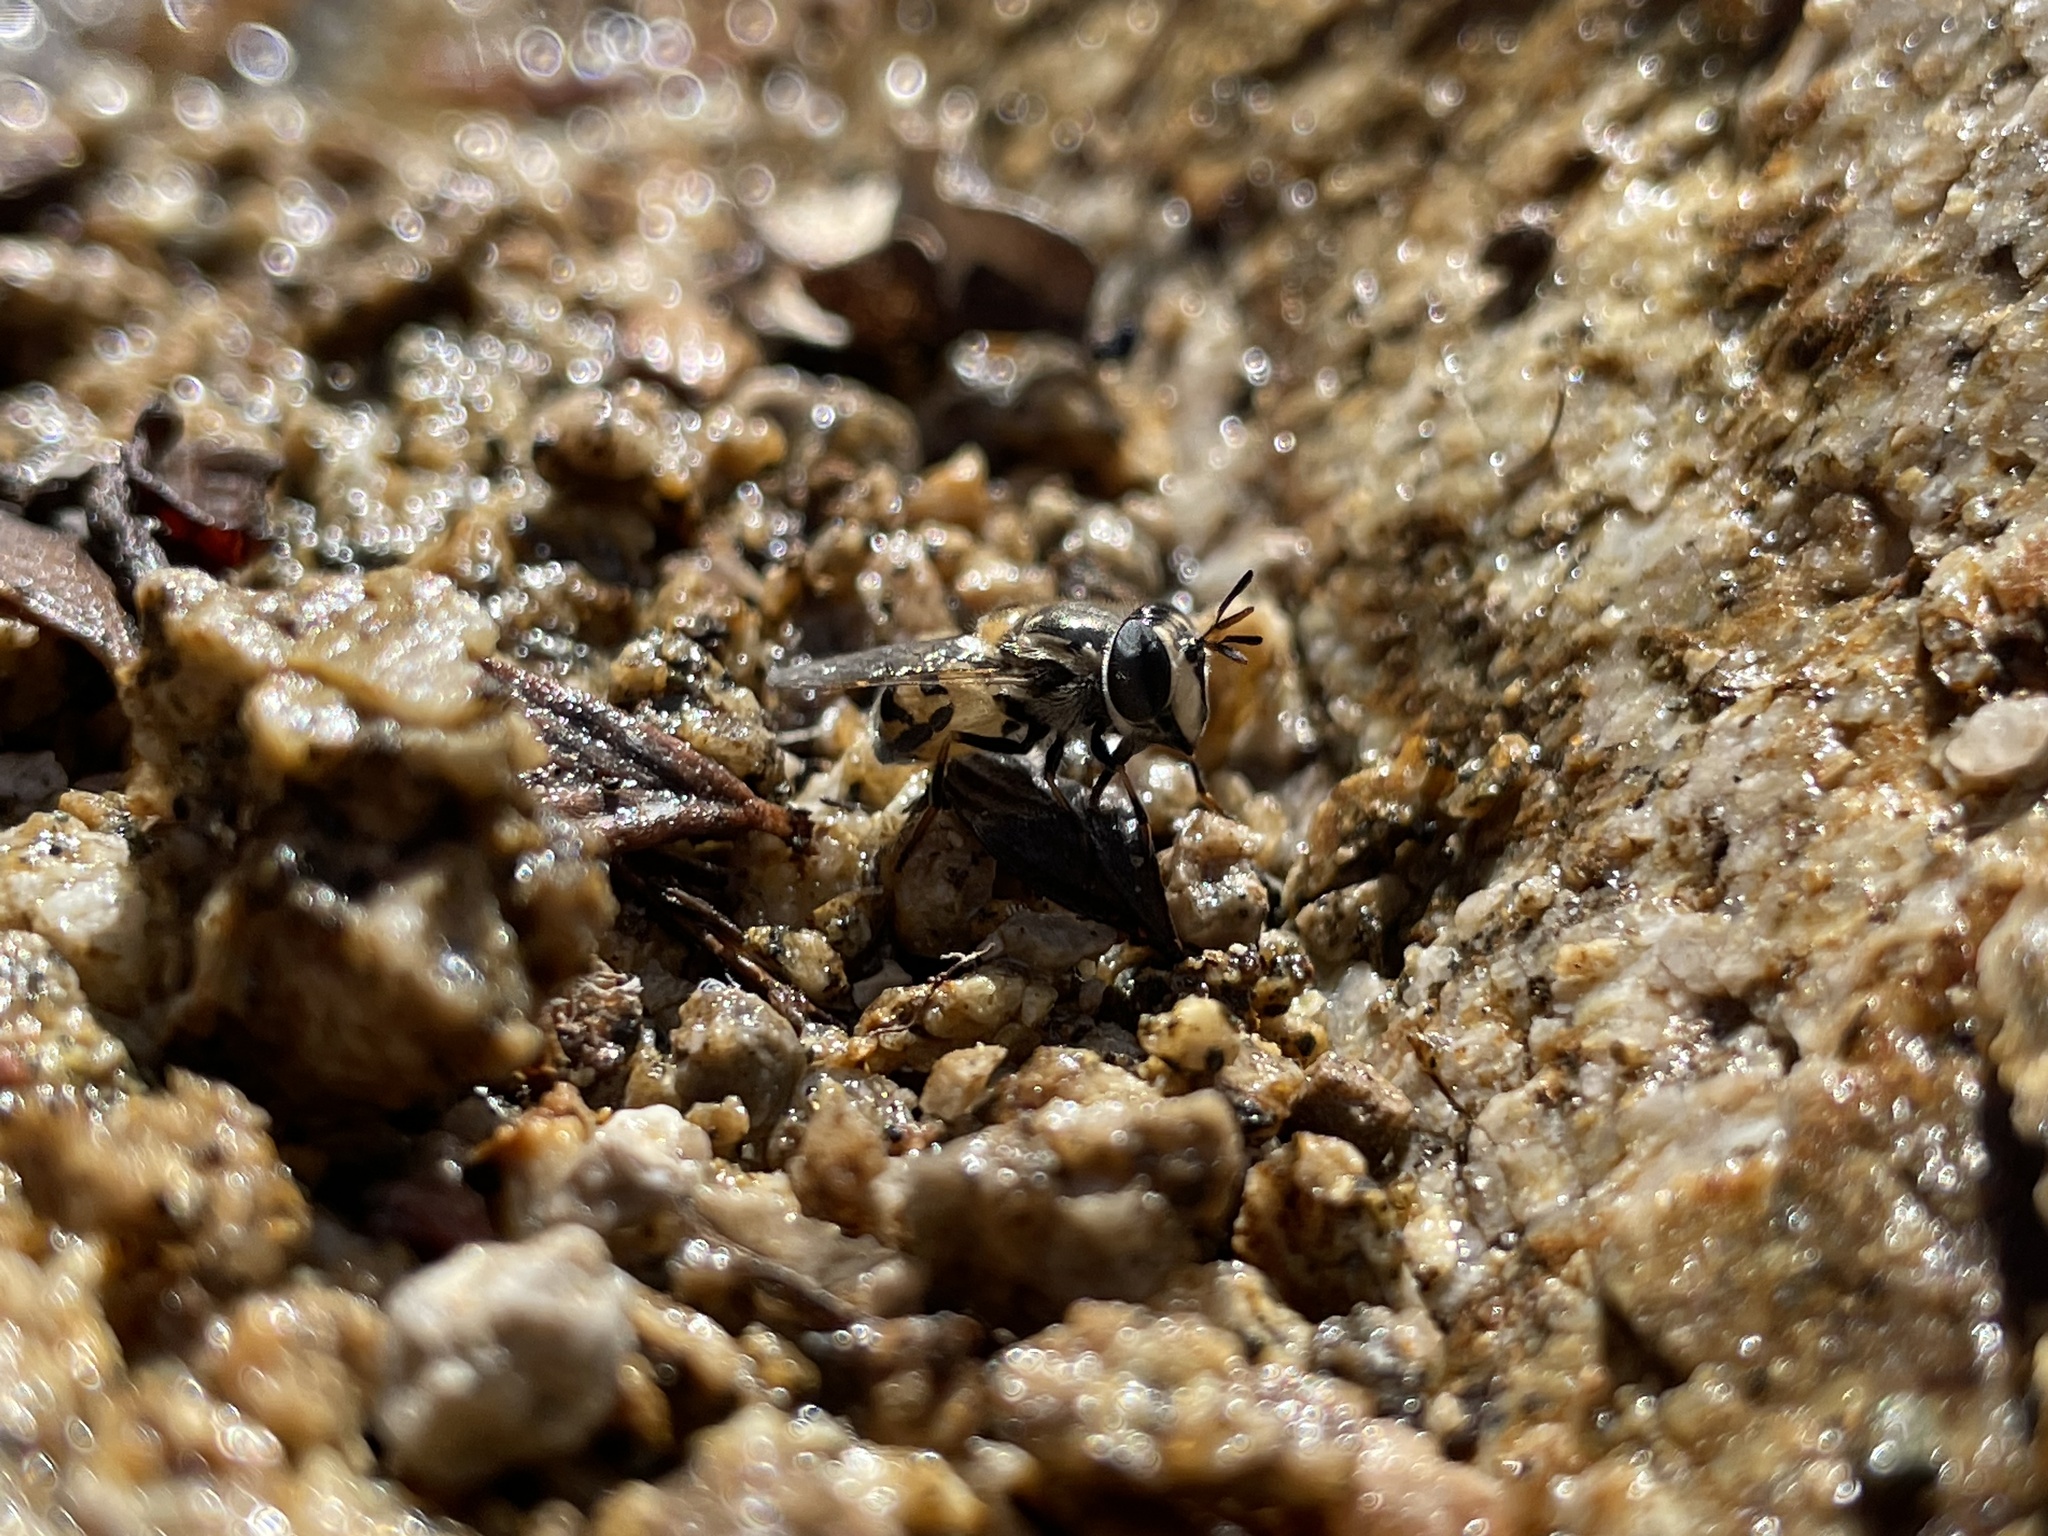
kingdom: Animalia
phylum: Arthropoda
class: Insecta
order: Diptera
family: Syrphidae
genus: Copestylum
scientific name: Copestylum marginatum
